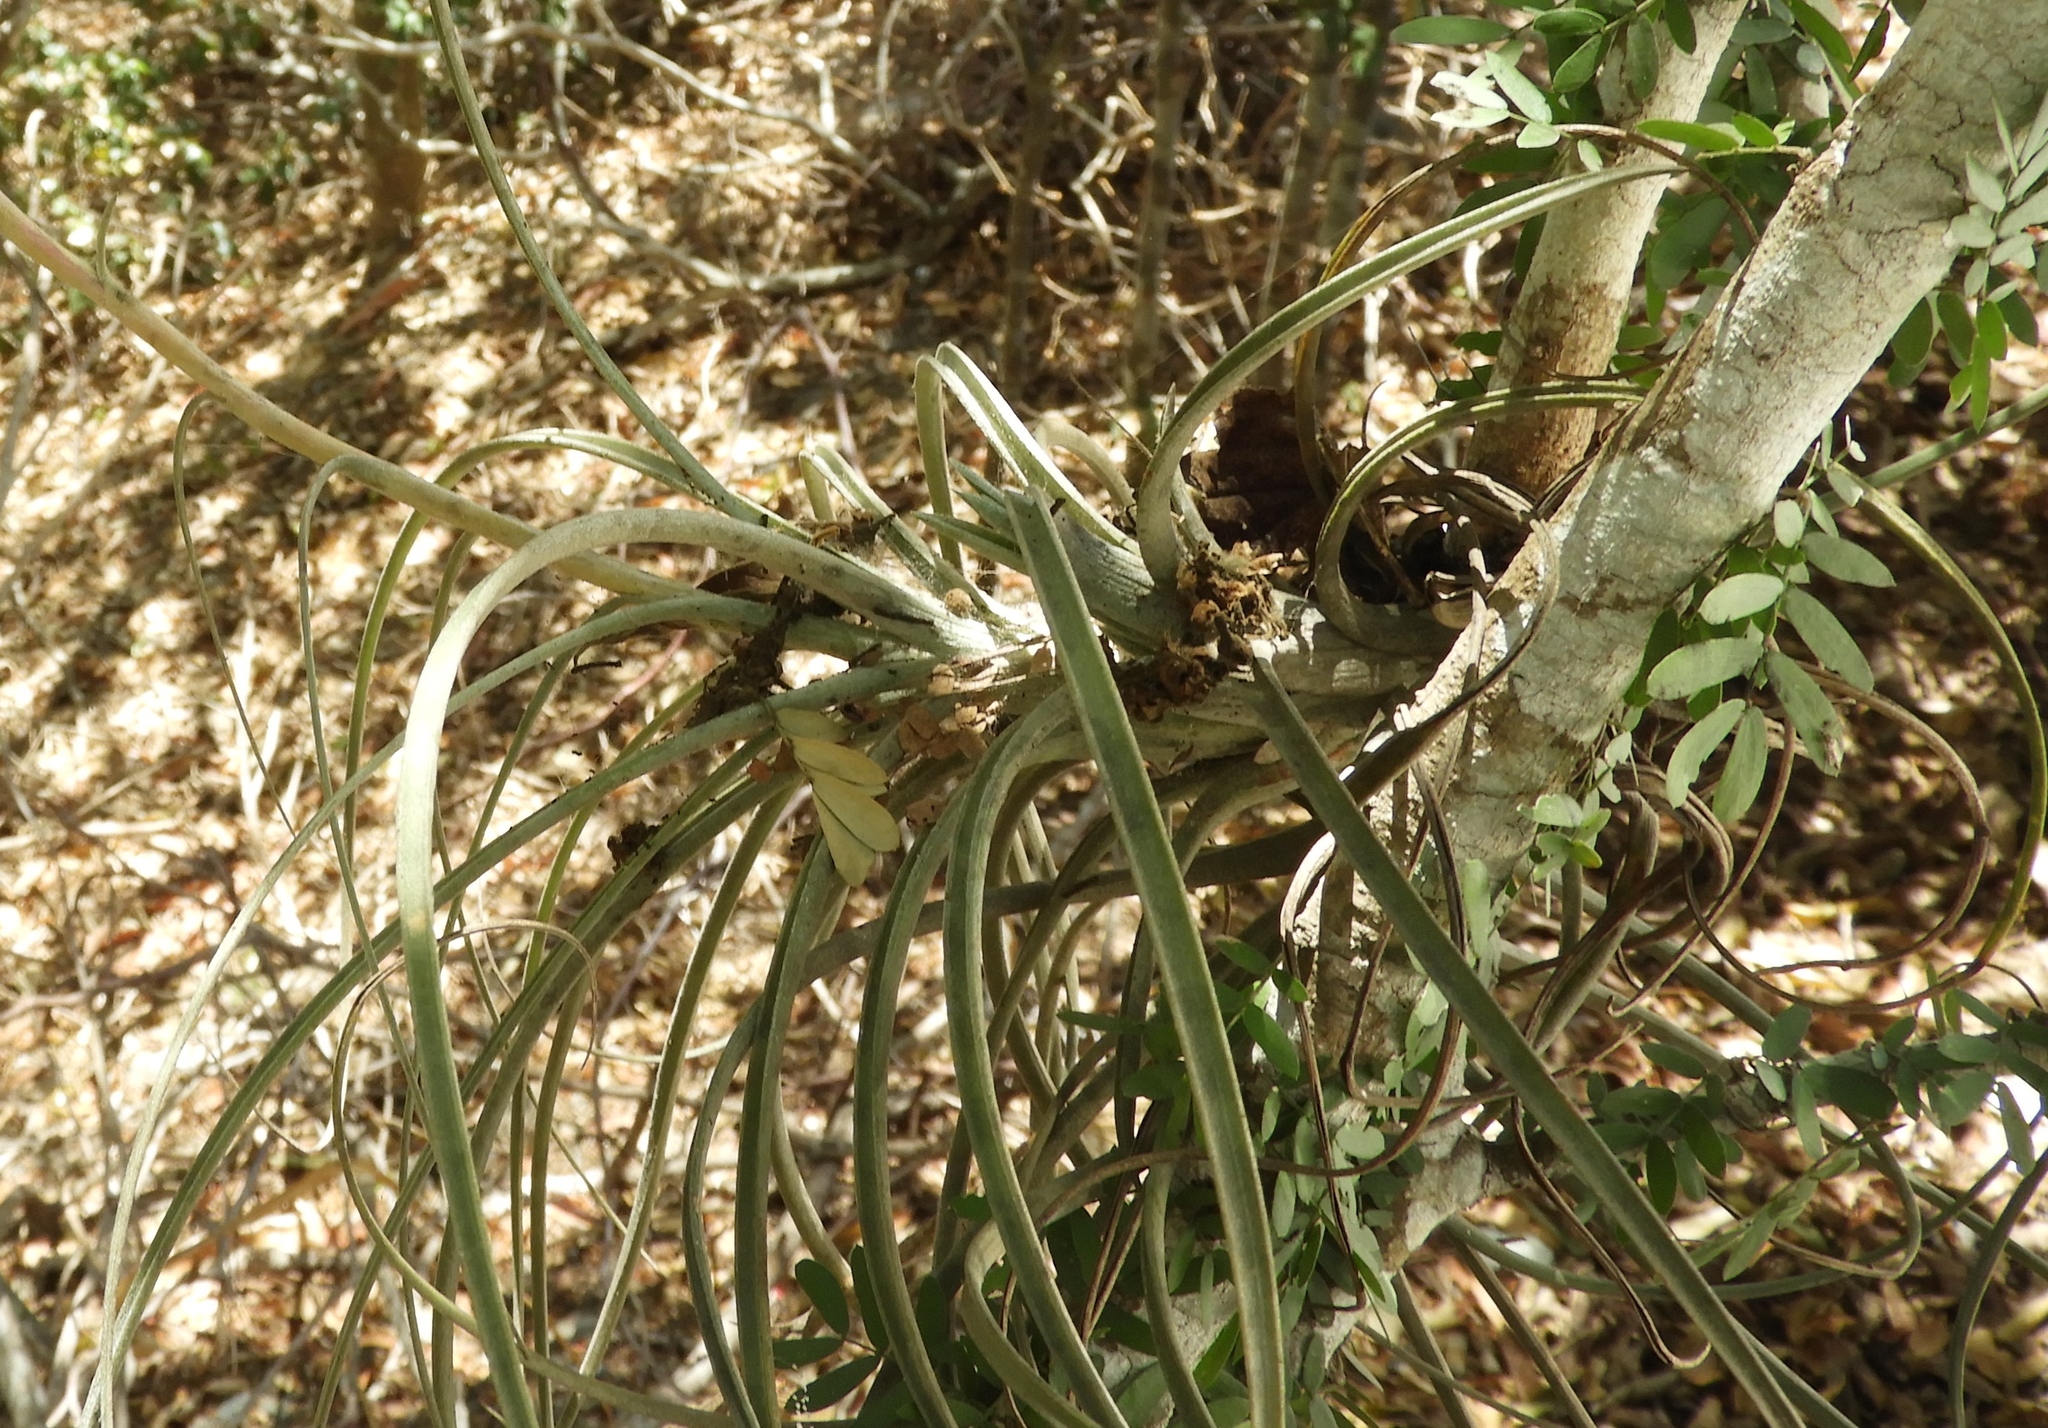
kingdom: Plantae
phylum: Tracheophyta
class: Liliopsida
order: Poales
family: Bromeliaceae
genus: Tillandsia
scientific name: Tillandsia
